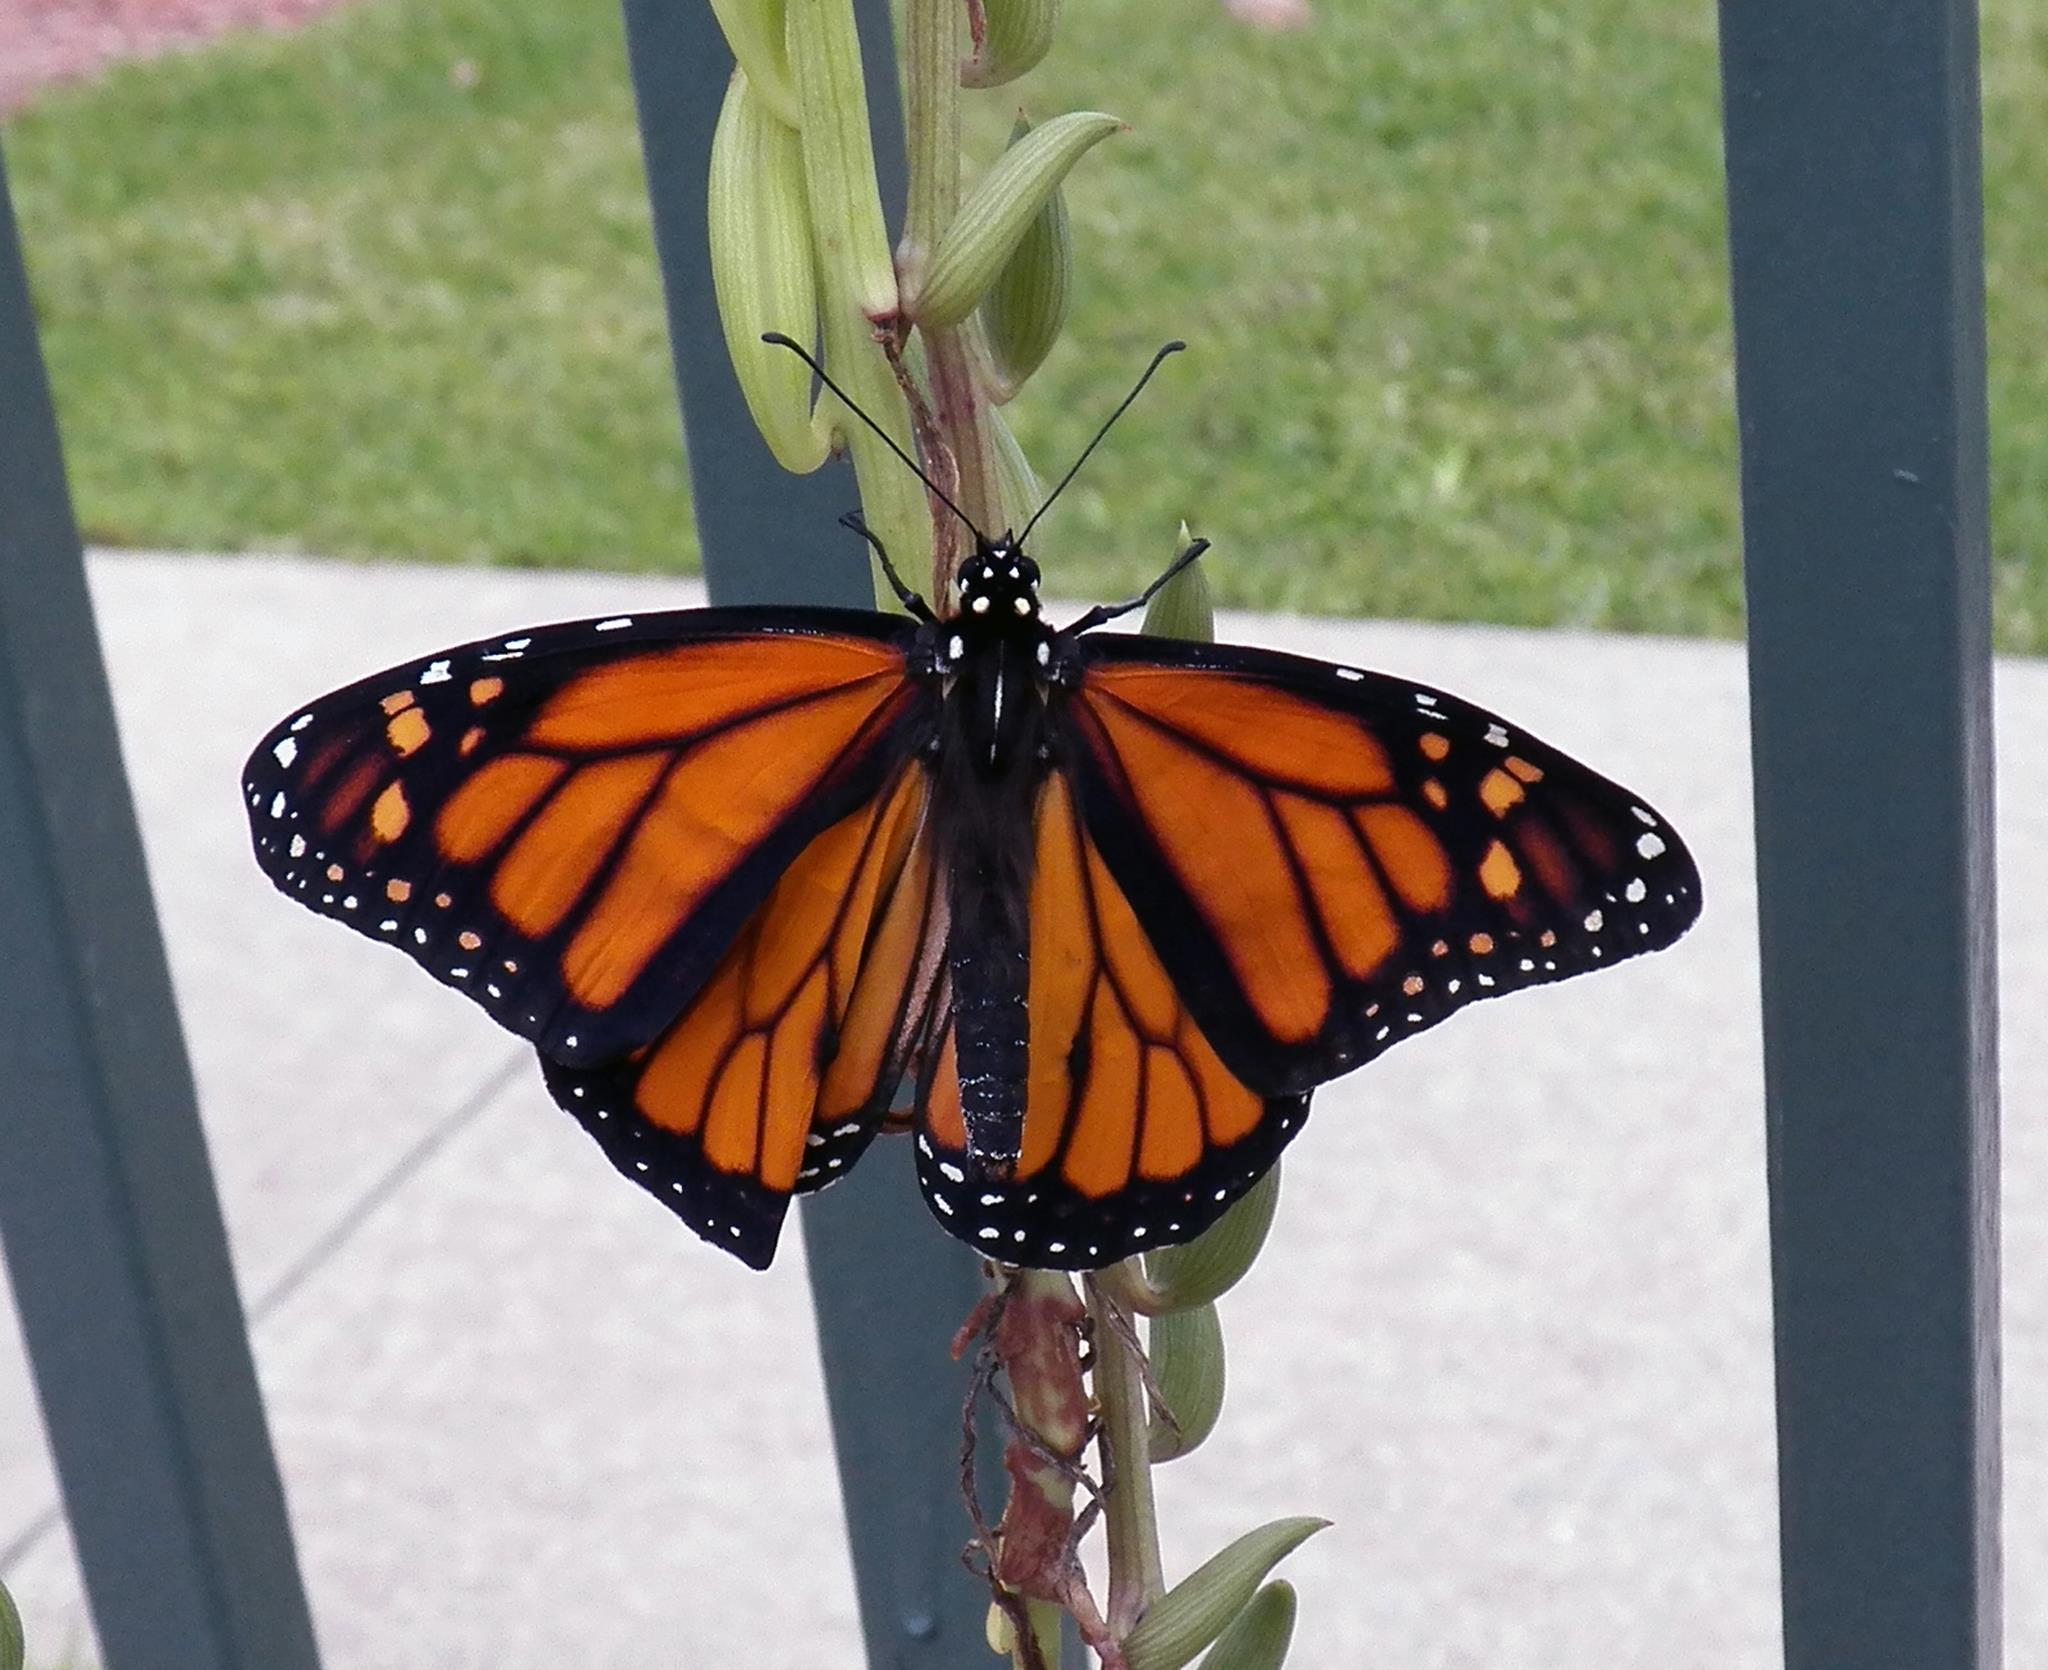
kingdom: Animalia
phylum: Arthropoda
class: Insecta
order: Lepidoptera
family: Nymphalidae
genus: Danaus
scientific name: Danaus plexippus
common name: Monarch
